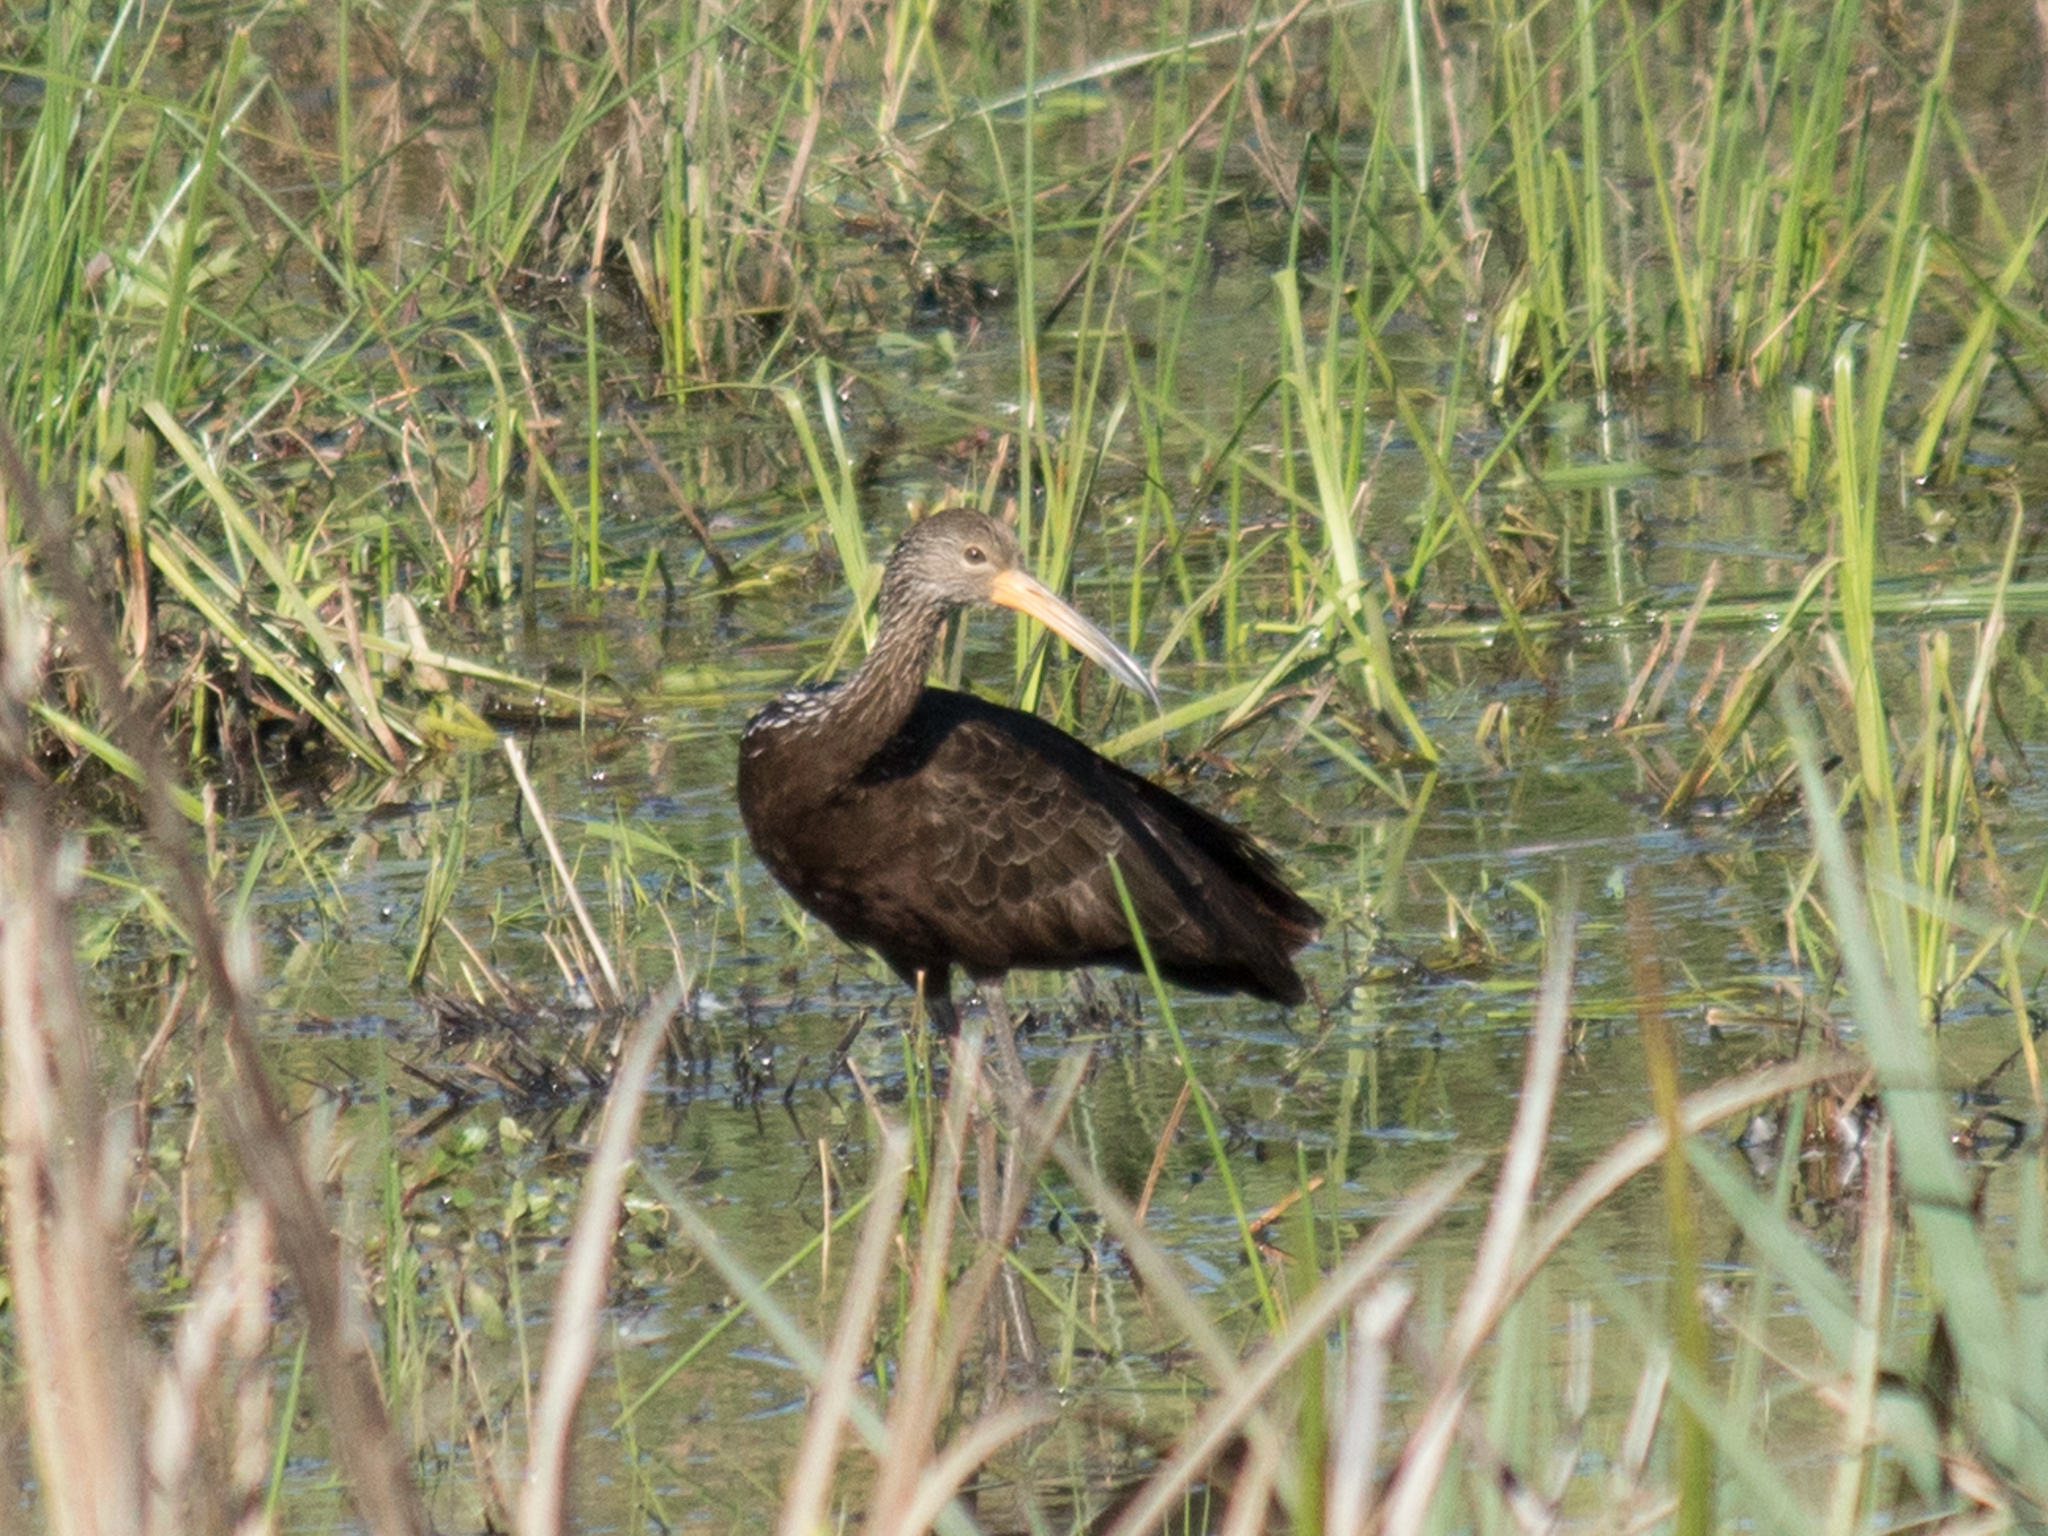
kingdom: Animalia
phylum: Chordata
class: Aves
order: Gruiformes
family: Aramidae
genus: Aramus
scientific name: Aramus guarauna
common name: Limpkin
